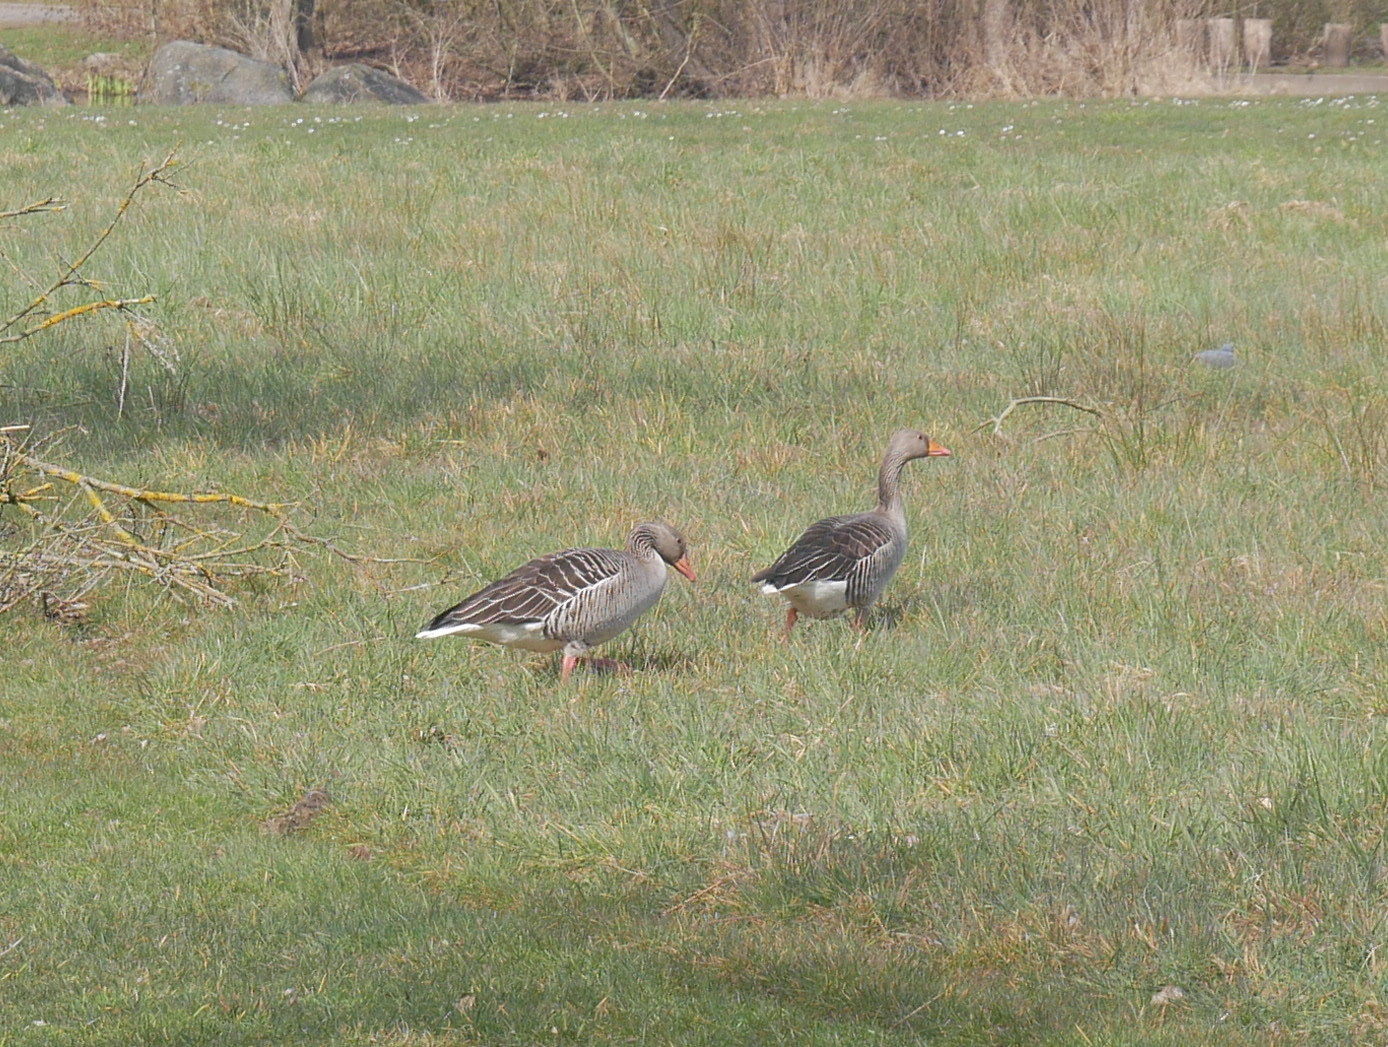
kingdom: Animalia
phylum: Chordata
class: Aves
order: Anseriformes
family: Anatidae
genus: Anser
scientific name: Anser anser
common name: Greylag goose
